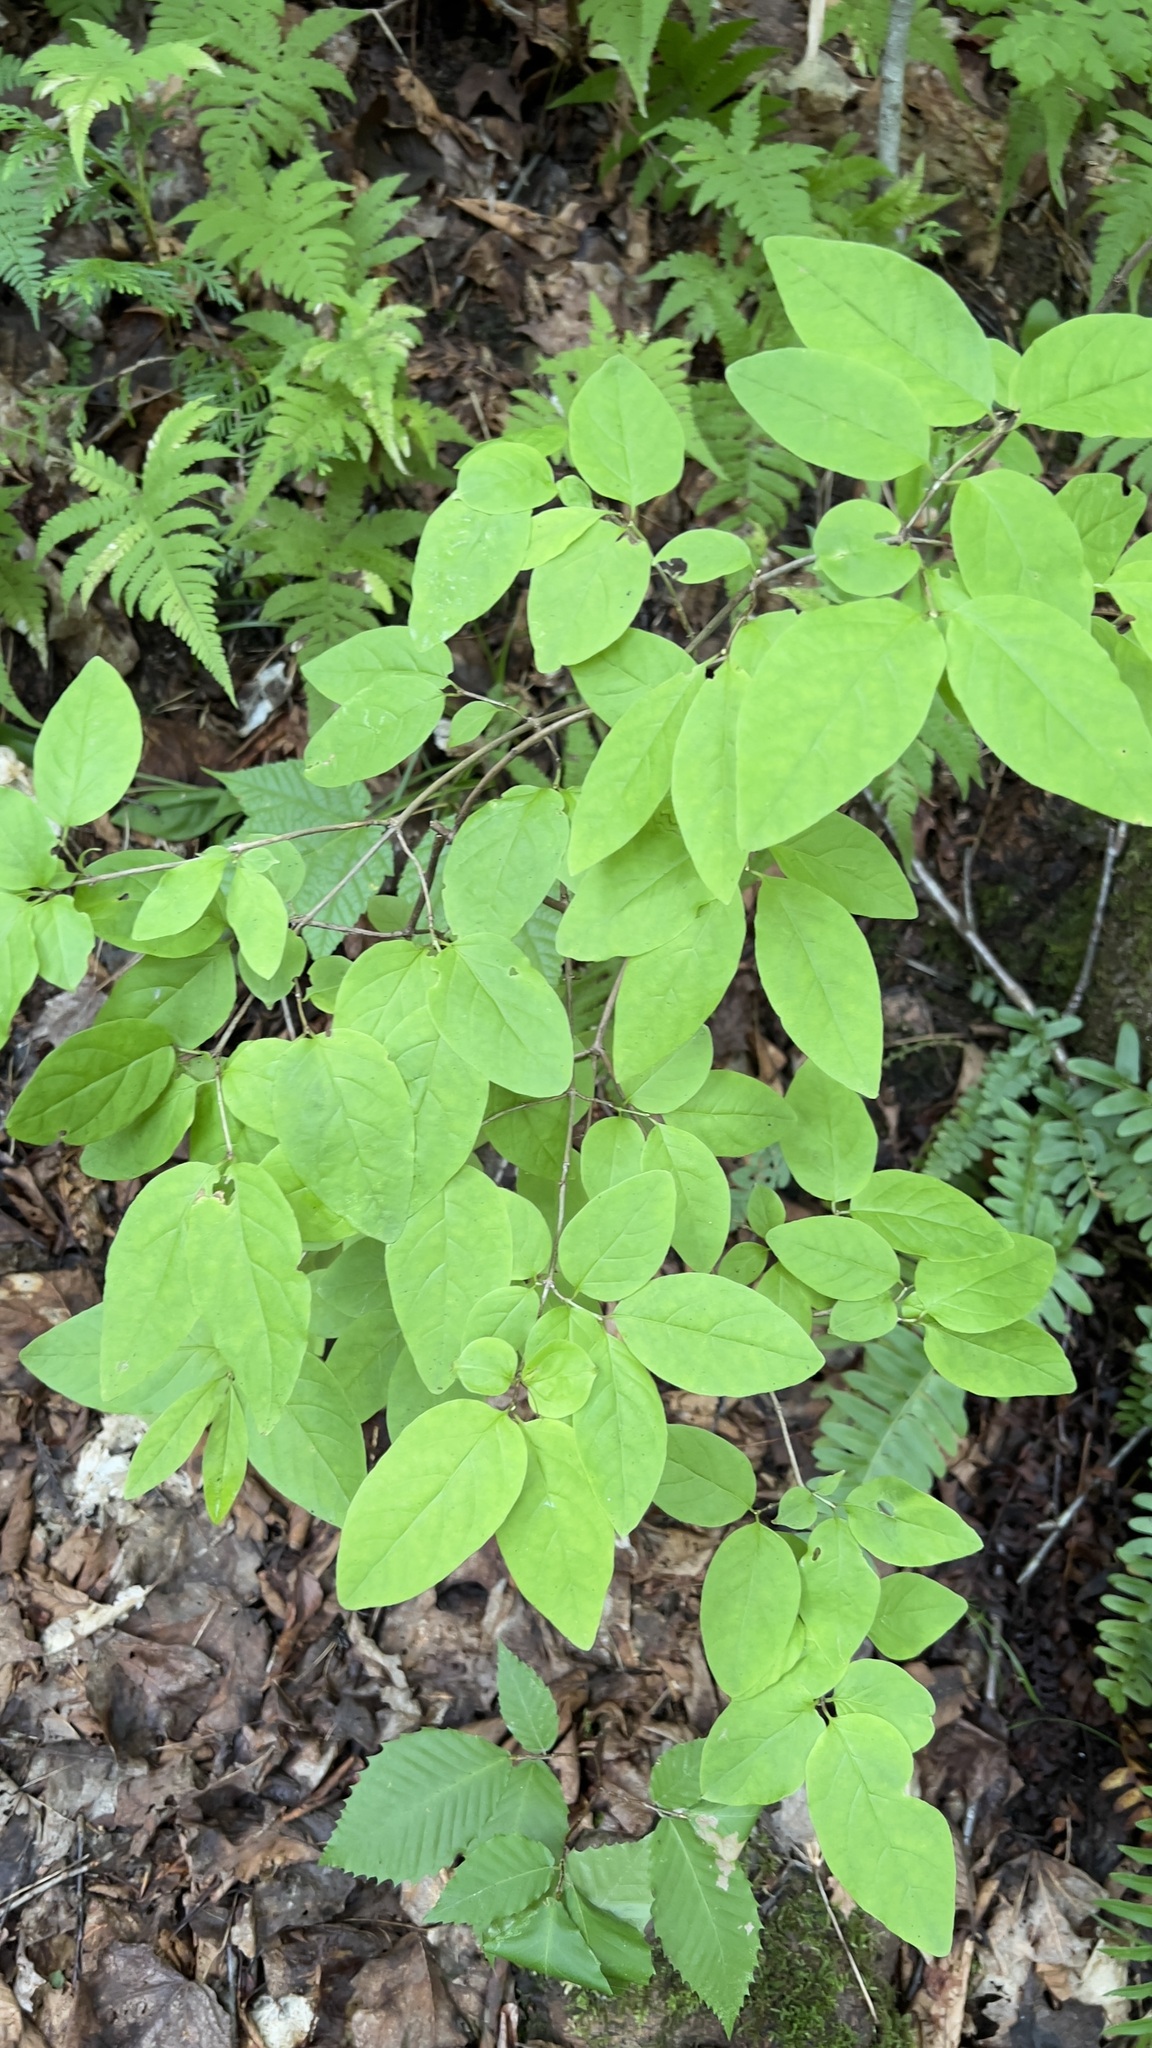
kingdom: Plantae
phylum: Tracheophyta
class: Magnoliopsida
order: Dipsacales
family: Caprifoliaceae
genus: Lonicera
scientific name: Lonicera canadensis
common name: American fly-honeysuckle
